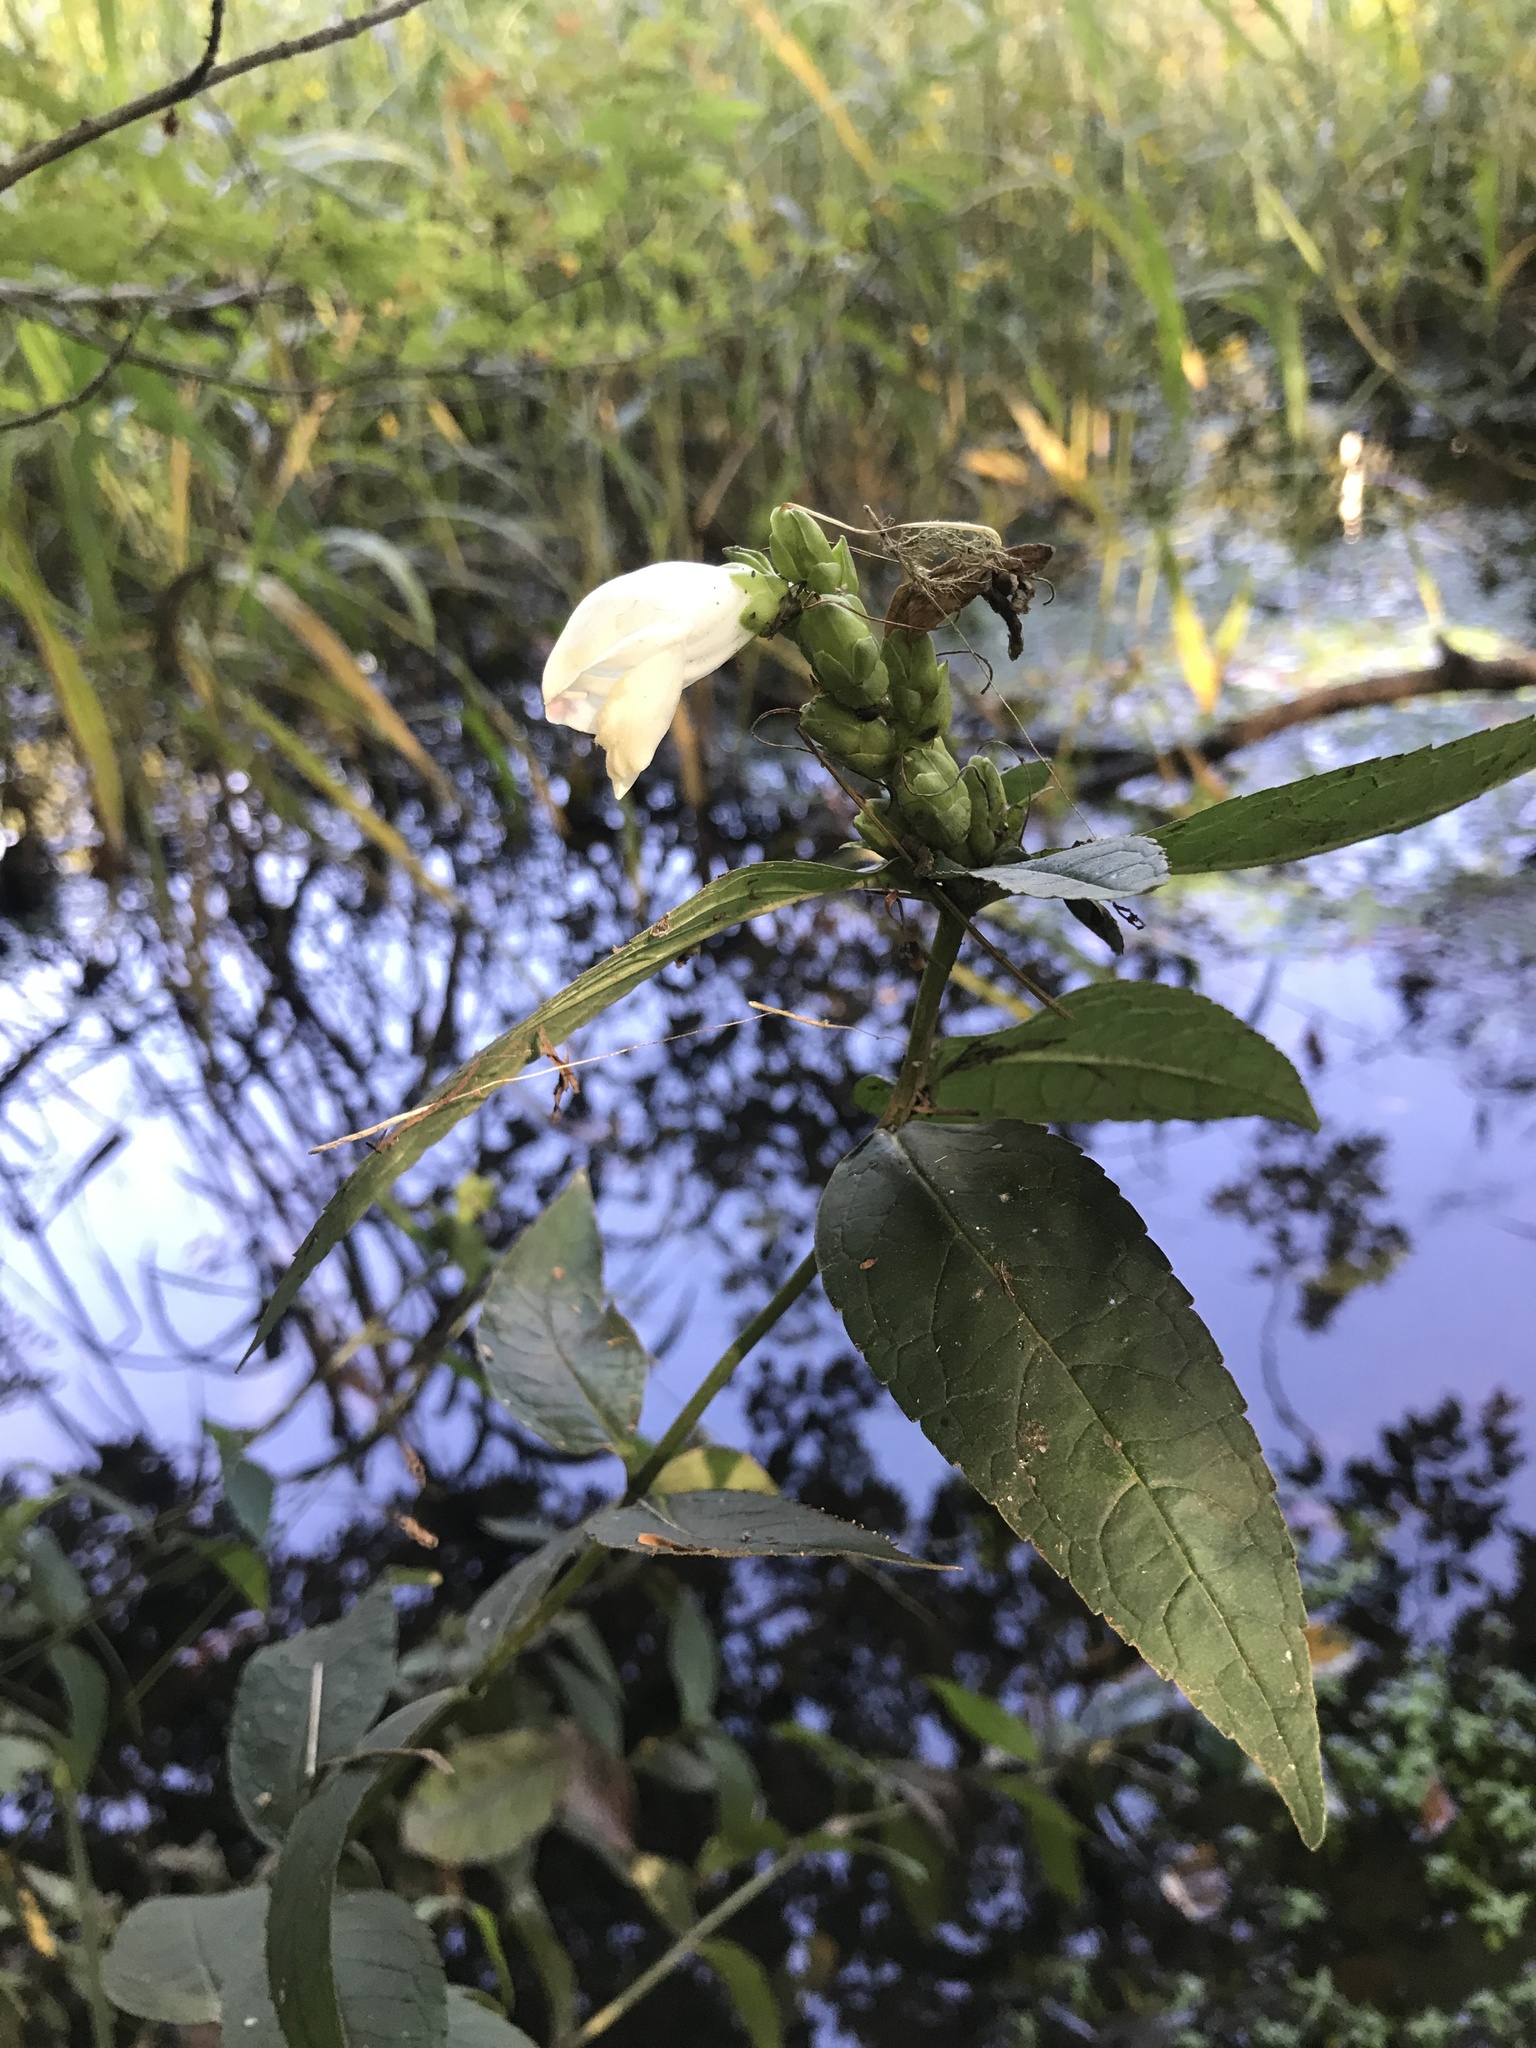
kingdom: Plantae
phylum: Tracheophyta
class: Magnoliopsida
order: Lamiales
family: Plantaginaceae
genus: Chelone
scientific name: Chelone glabra
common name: Snakehead
